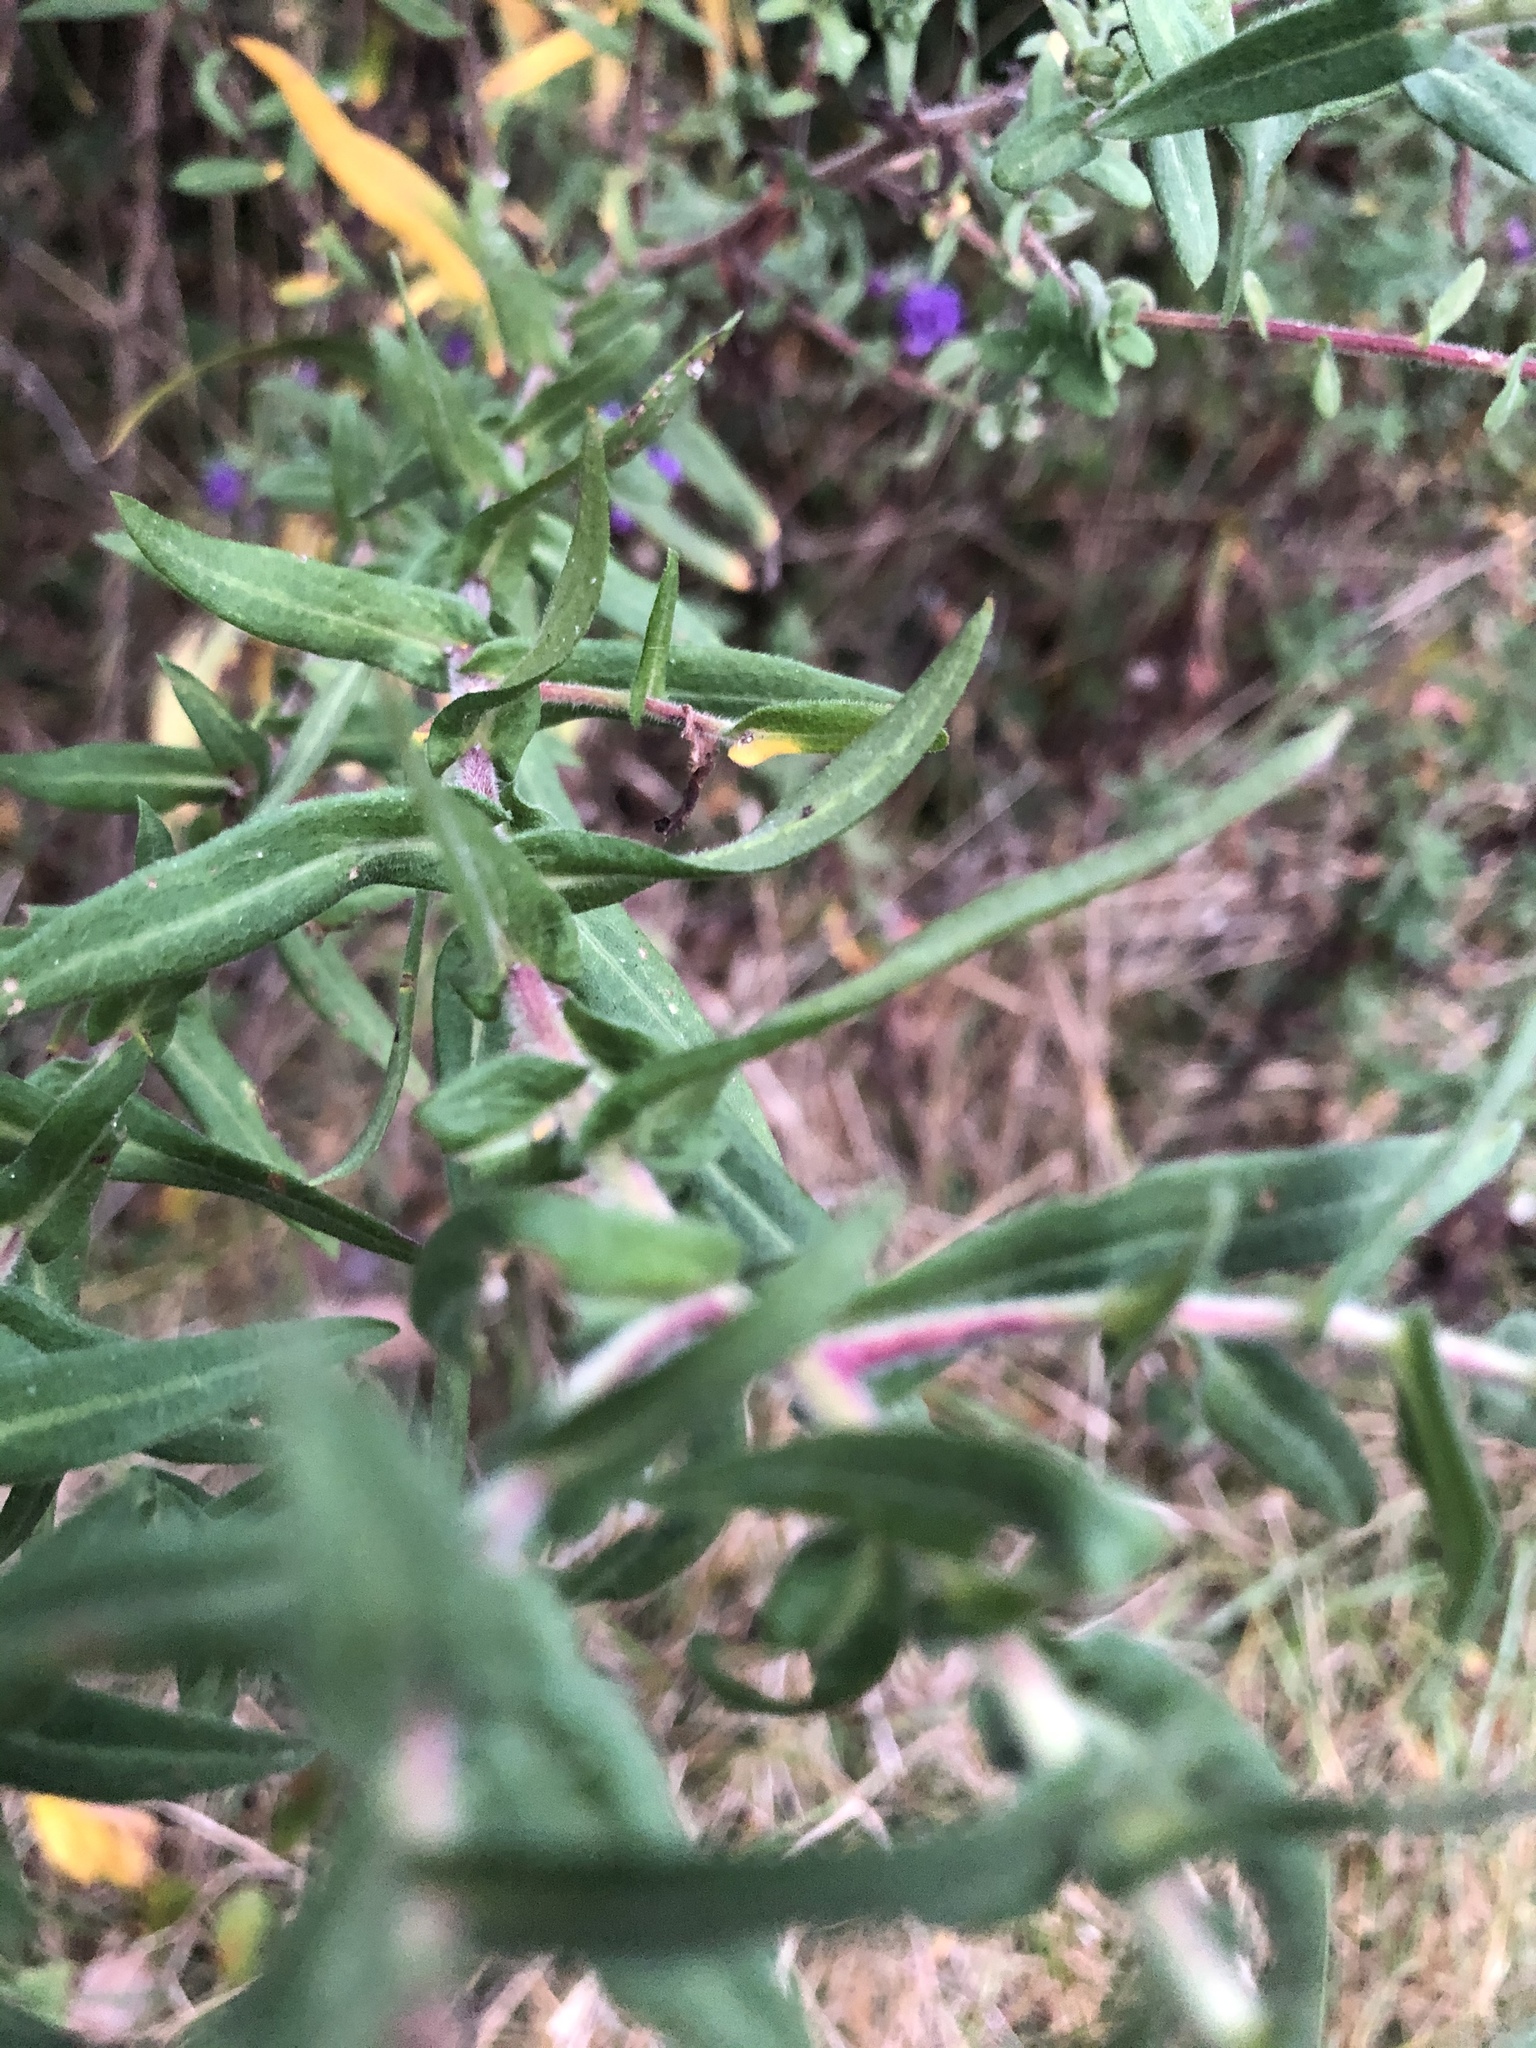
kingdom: Plantae
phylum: Tracheophyta
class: Magnoliopsida
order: Asterales
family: Asteraceae
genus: Symphyotrichum
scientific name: Symphyotrichum novae-angliae
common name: Michaelmas daisy
